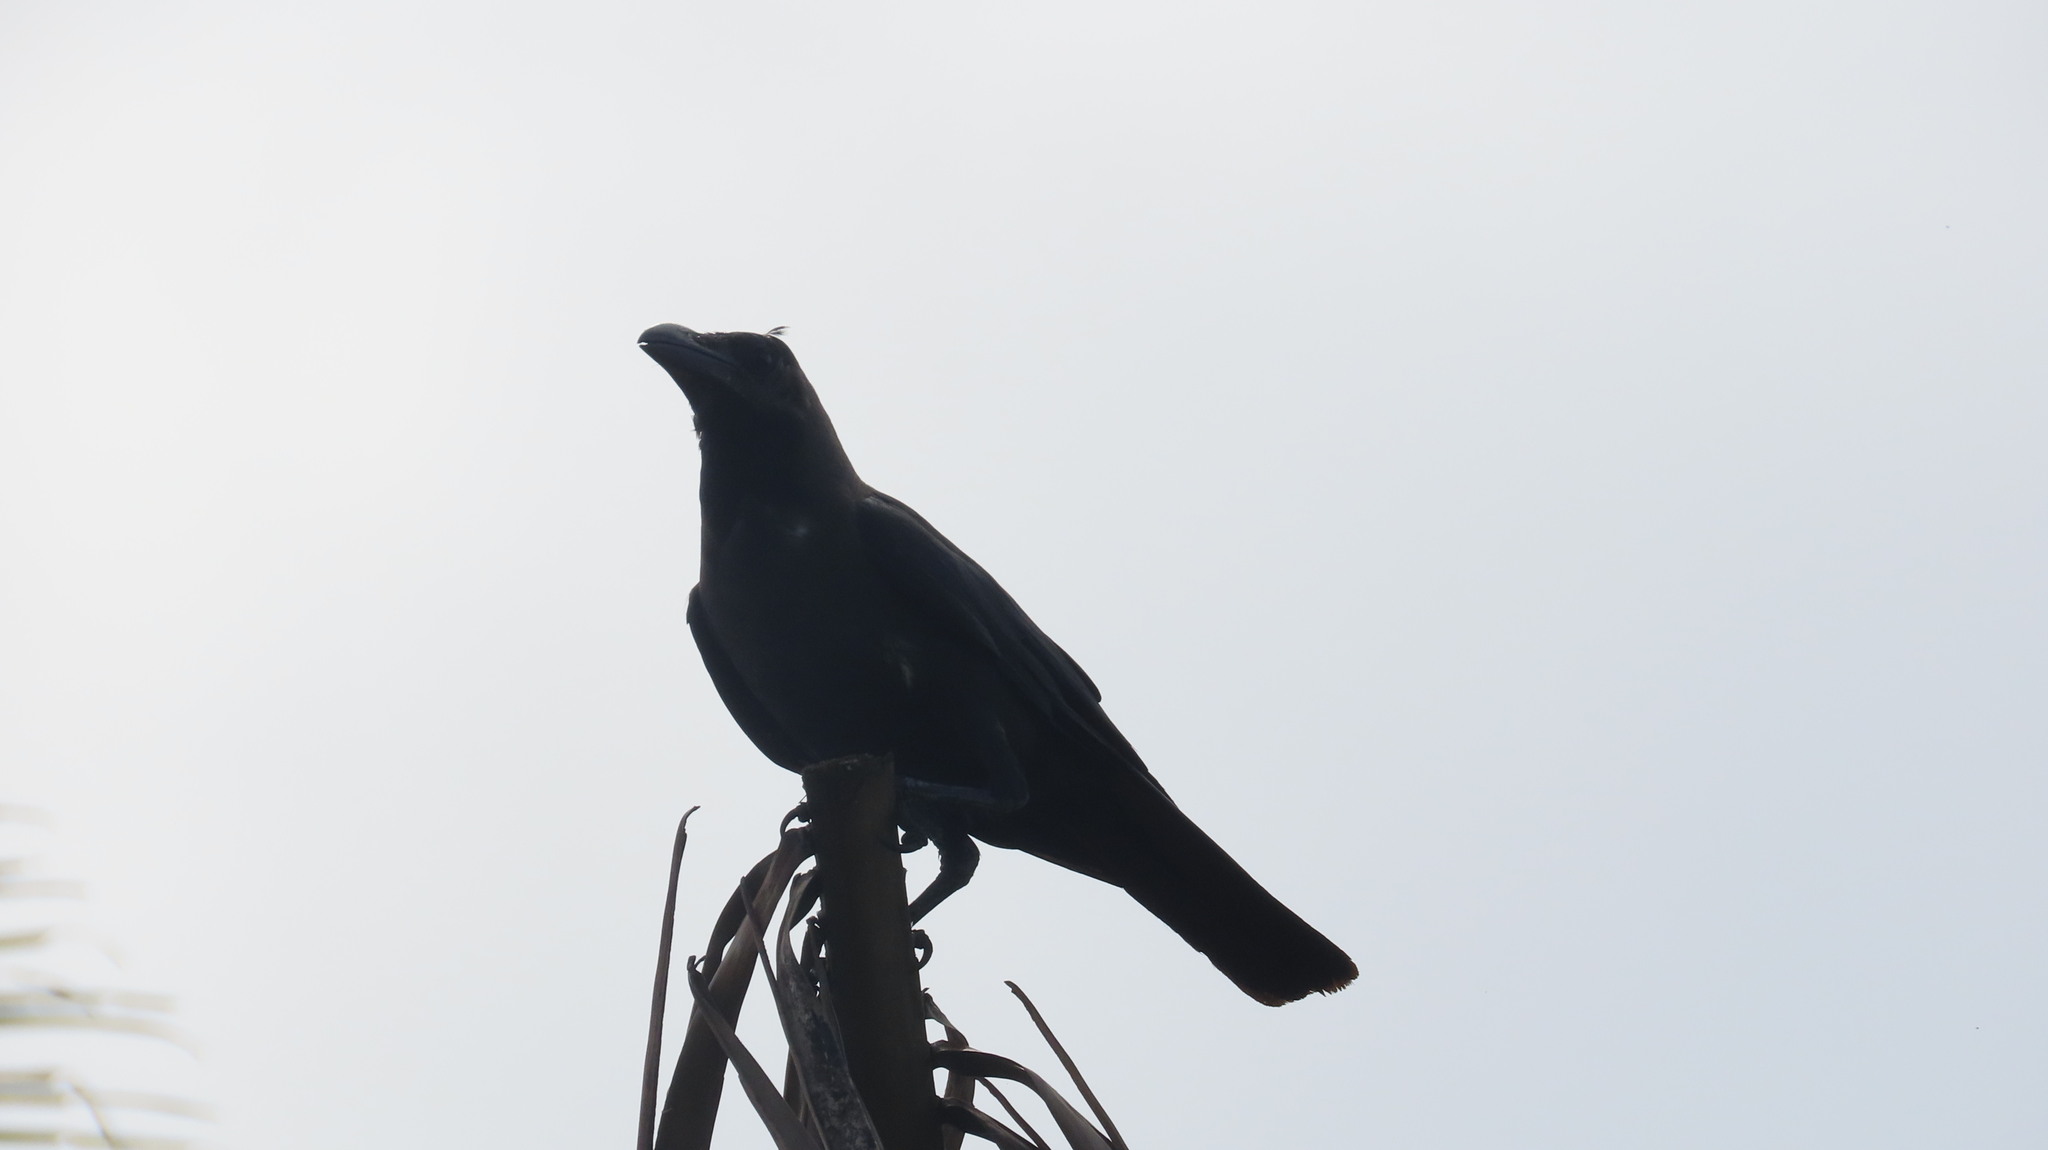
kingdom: Animalia
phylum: Chordata
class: Aves
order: Passeriformes
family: Corvidae
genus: Corvus
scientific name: Corvus splendens
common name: House crow
